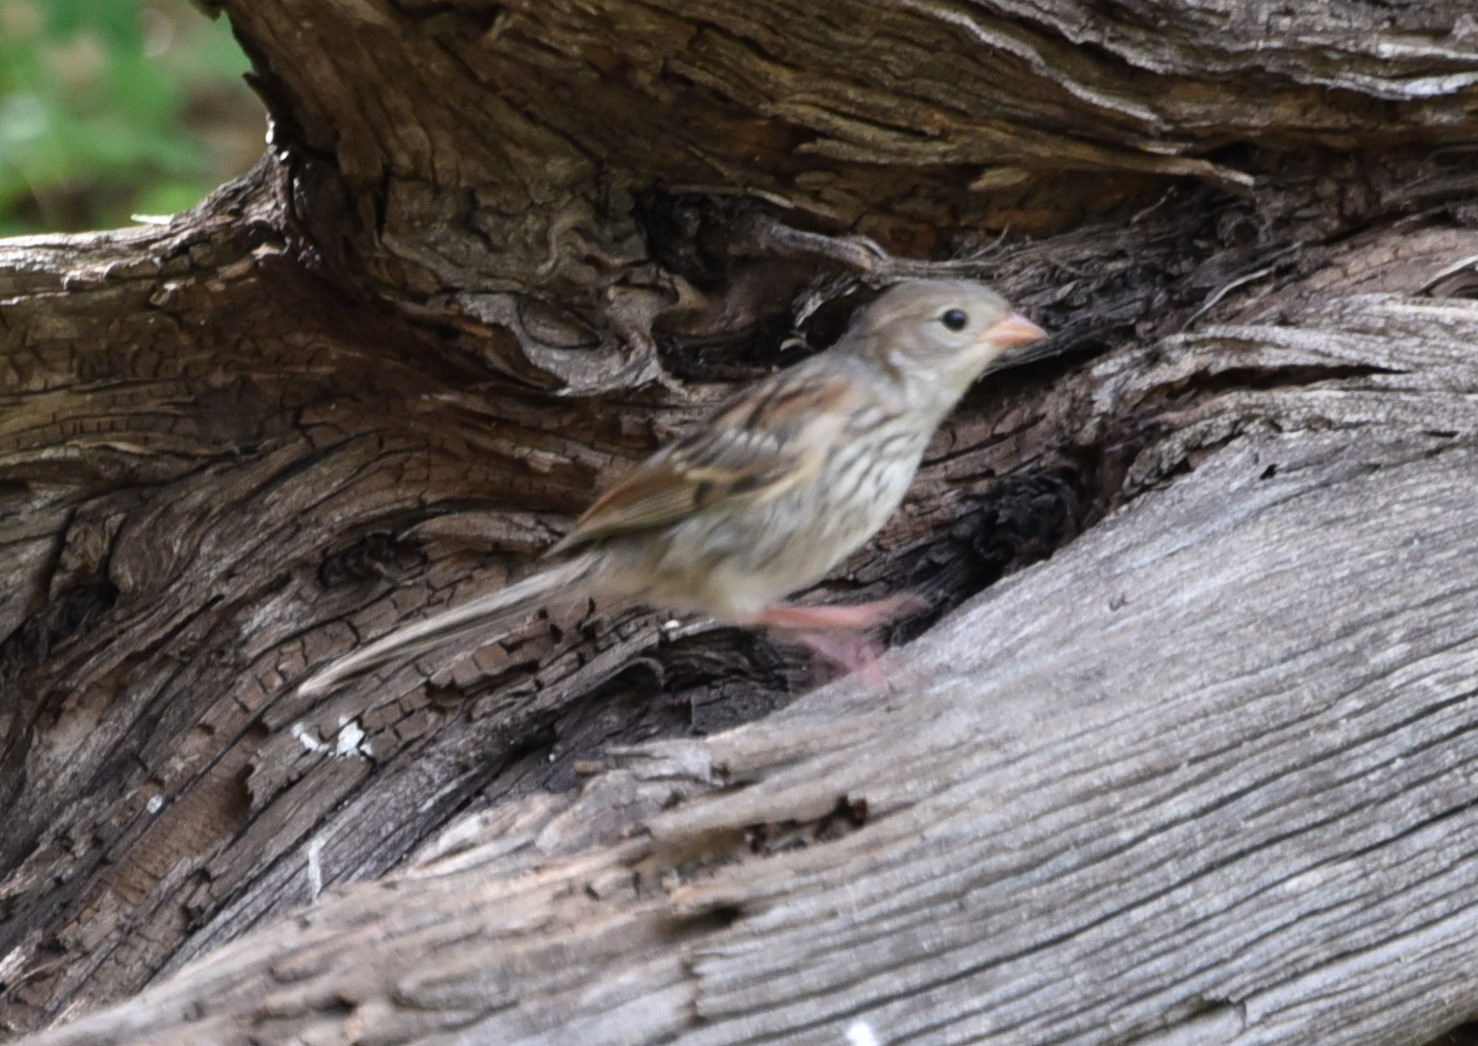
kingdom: Animalia
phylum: Chordata
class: Aves
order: Passeriformes
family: Passerellidae
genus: Spizella
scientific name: Spizella pusilla
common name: Field sparrow
